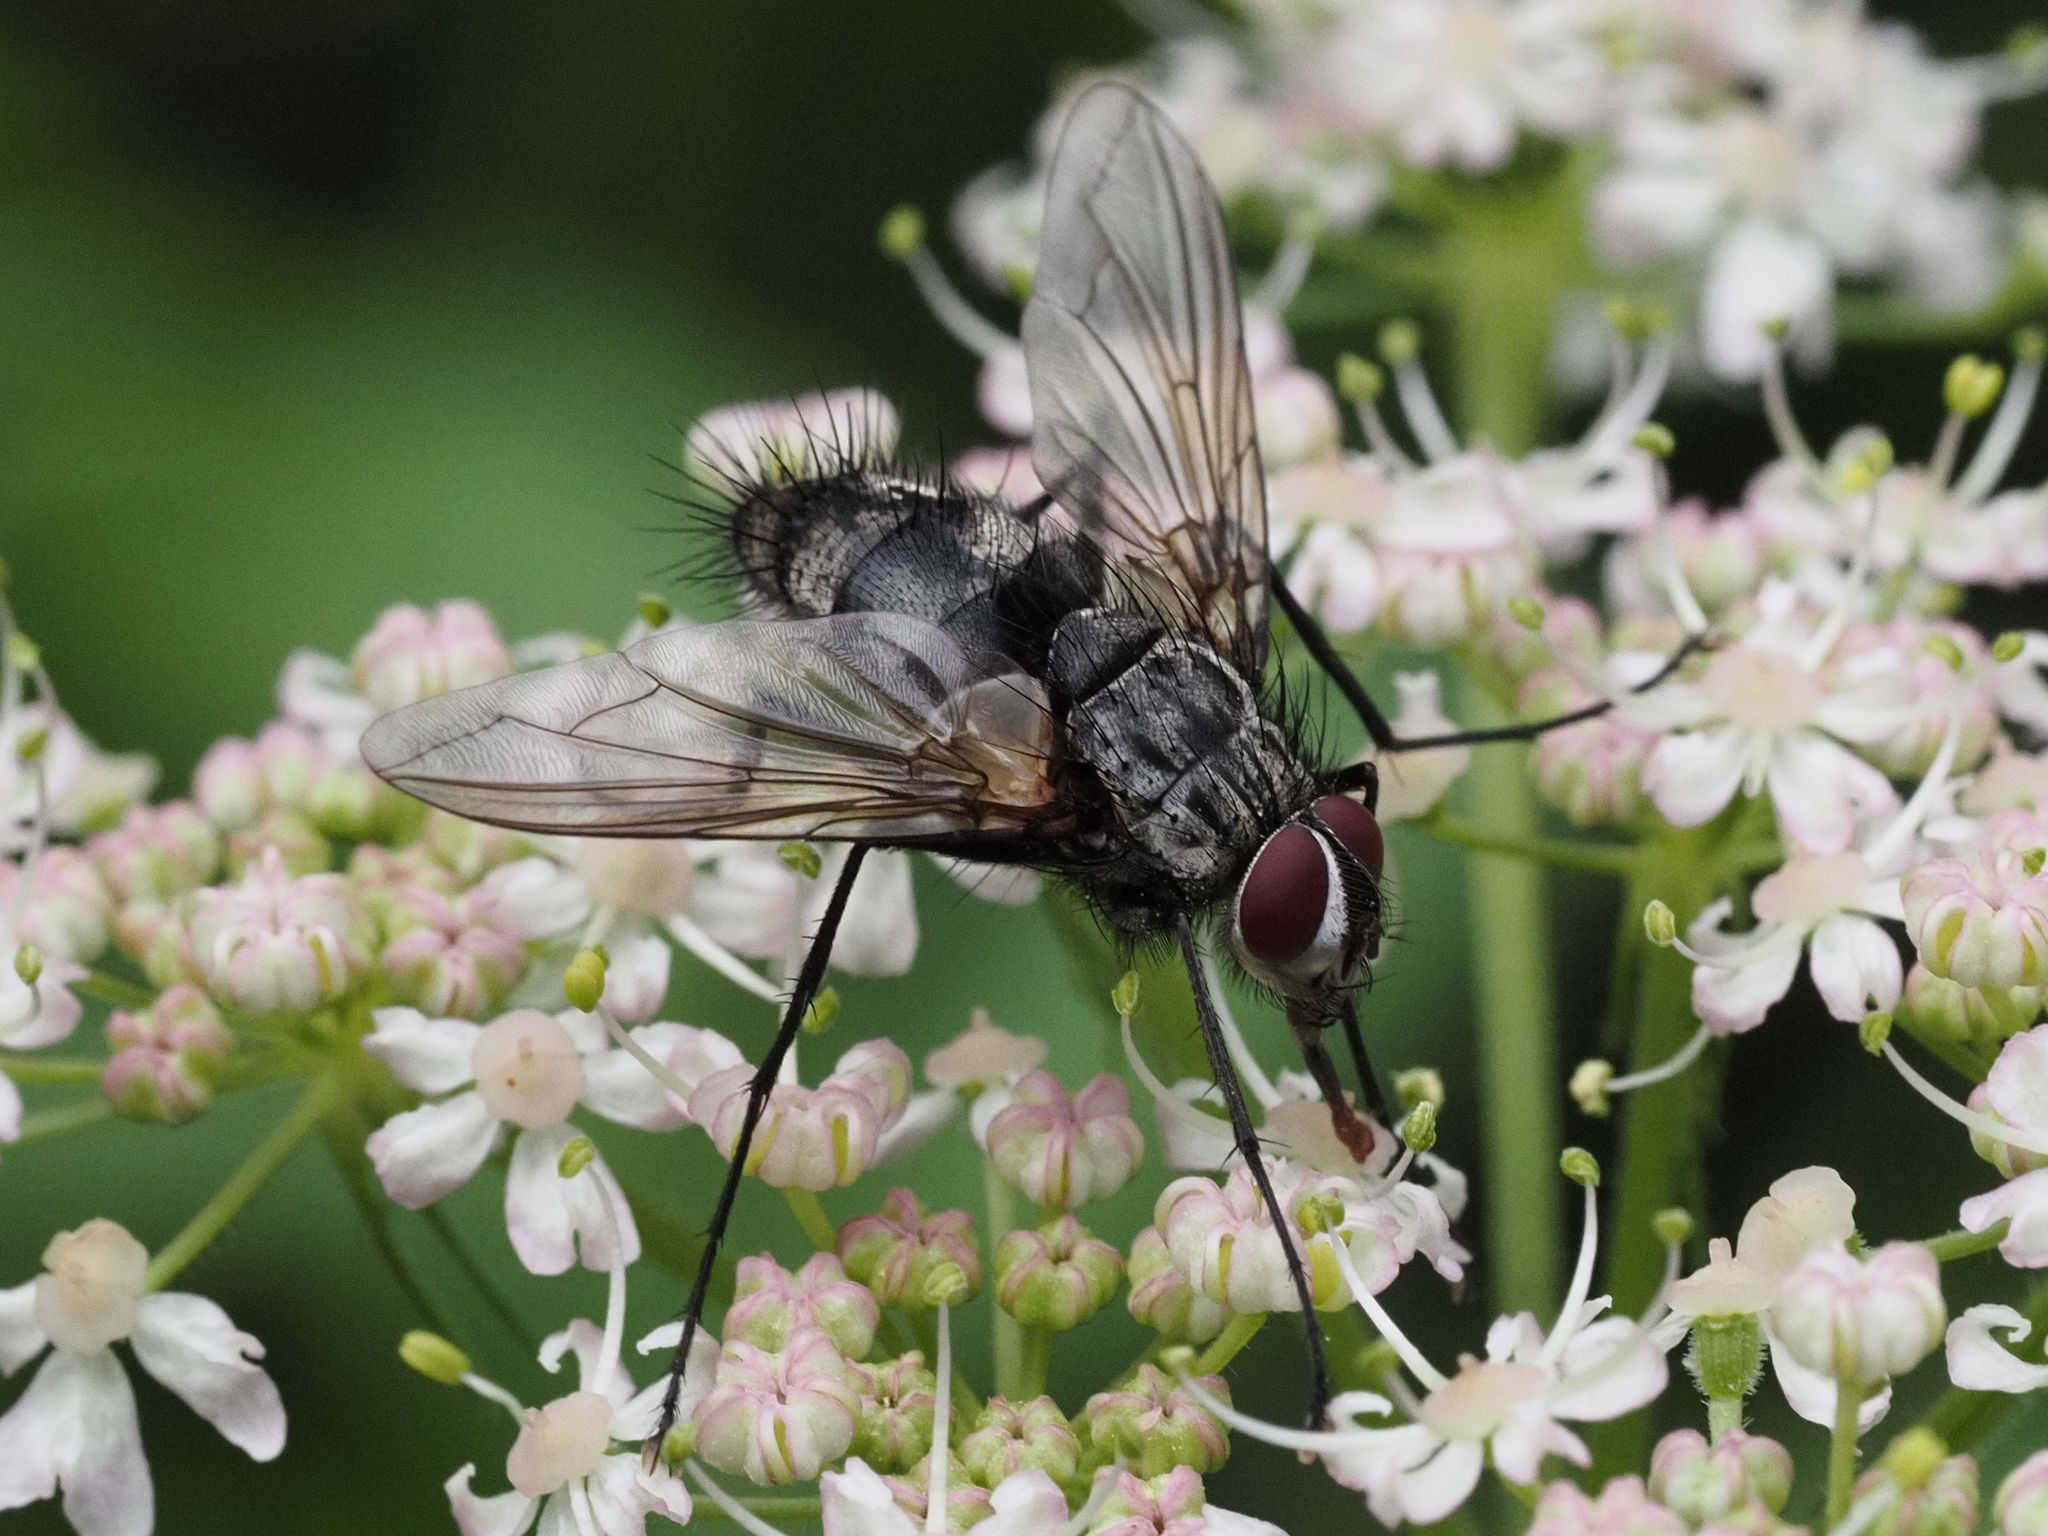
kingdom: Animalia
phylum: Arthropoda
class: Insecta
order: Diptera
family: Tachinidae
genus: Dinera
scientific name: Dinera ferina
